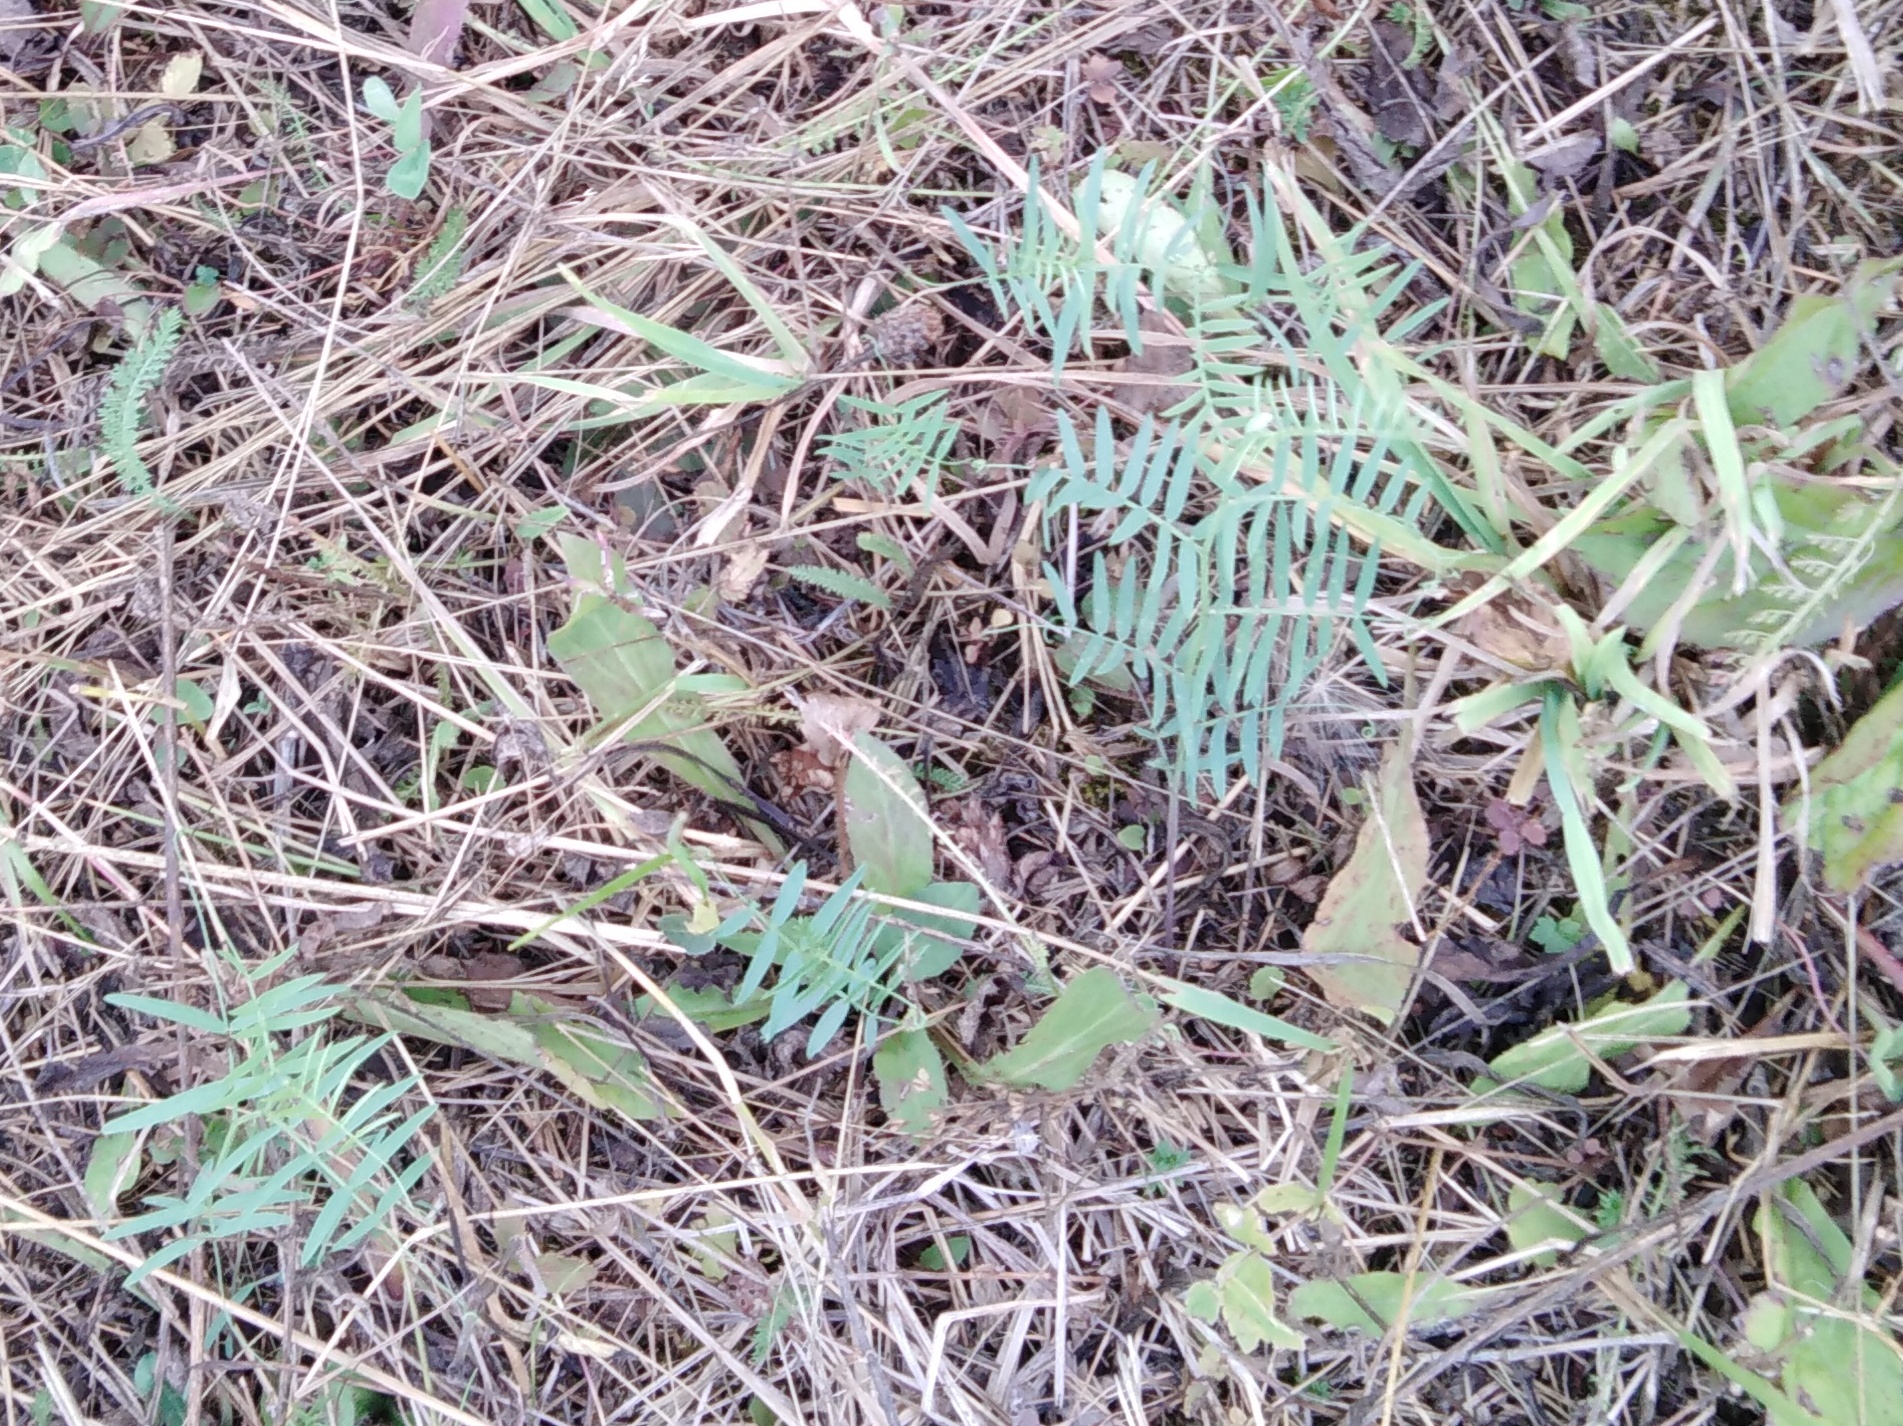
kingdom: Plantae
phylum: Tracheophyta
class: Magnoliopsida
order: Fabales
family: Fabaceae
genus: Vicia
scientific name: Vicia cracca
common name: Bird vetch
